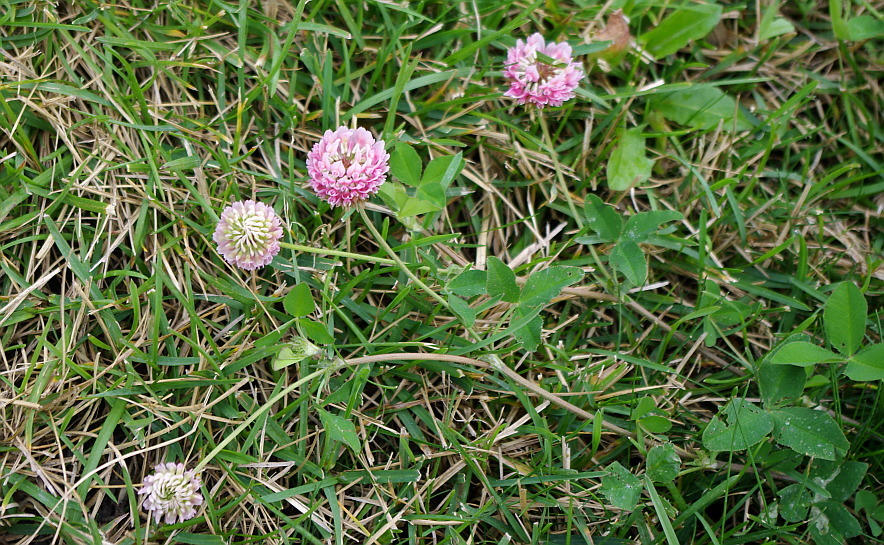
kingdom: Plantae
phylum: Tracheophyta
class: Magnoliopsida
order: Fabales
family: Fabaceae
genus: Trifolium
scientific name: Trifolium hybridum
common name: Alsike clover
